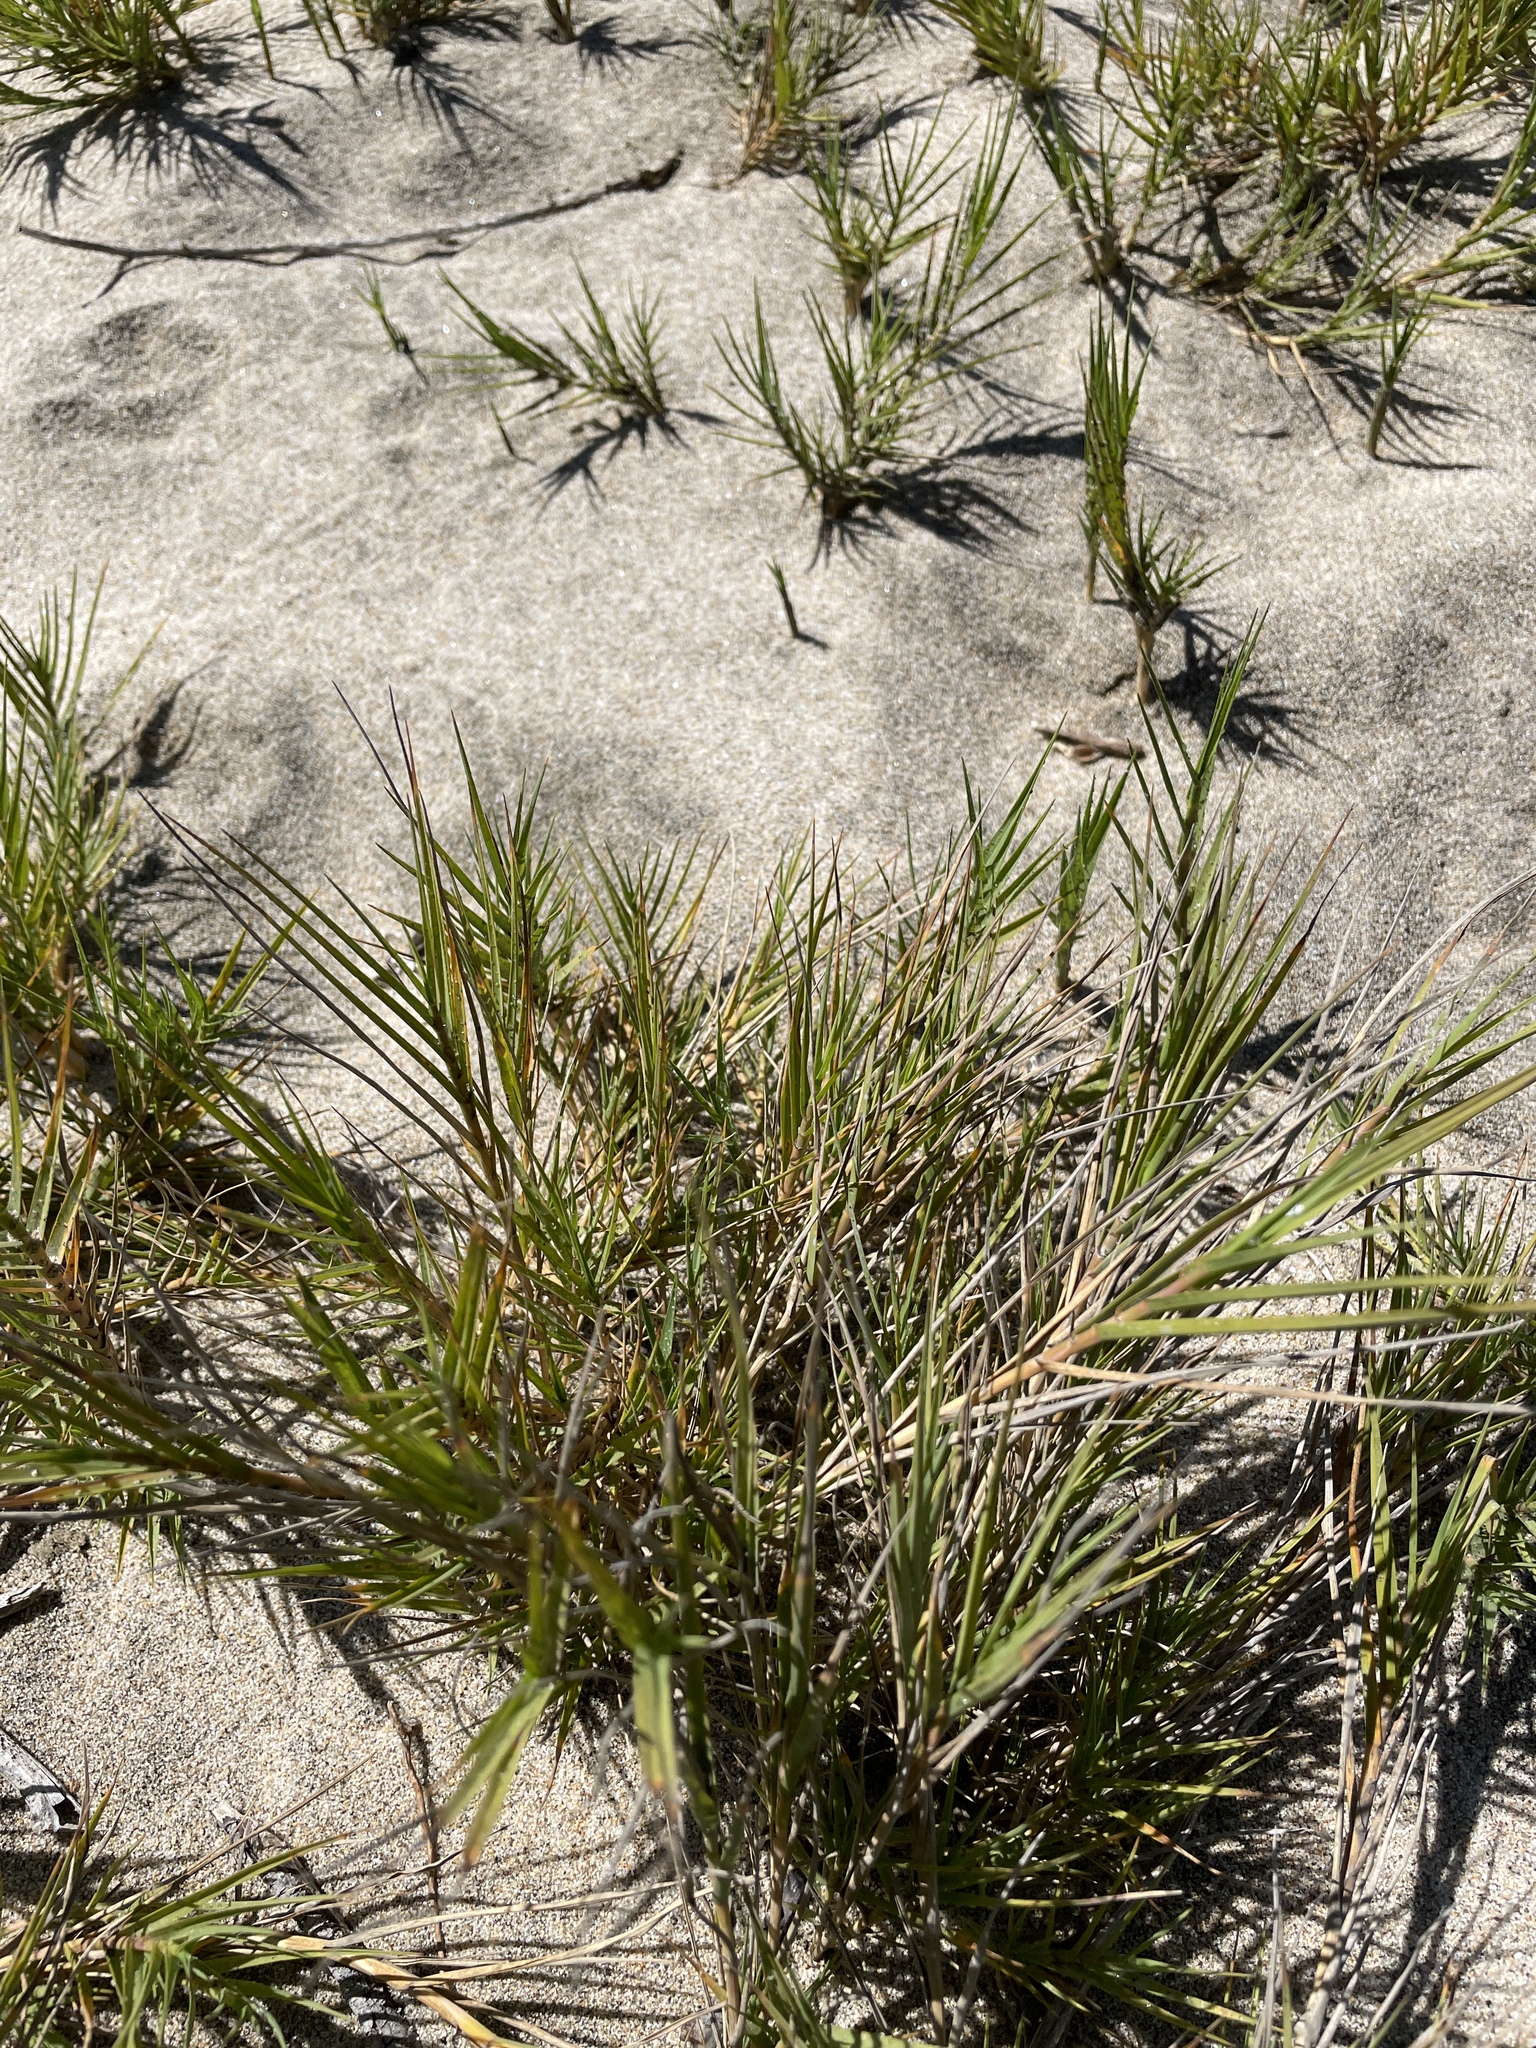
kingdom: Plantae
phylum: Tracheophyta
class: Liliopsida
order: Poales
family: Poaceae
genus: Distichlis
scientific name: Distichlis spicata
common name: Saltgrass
